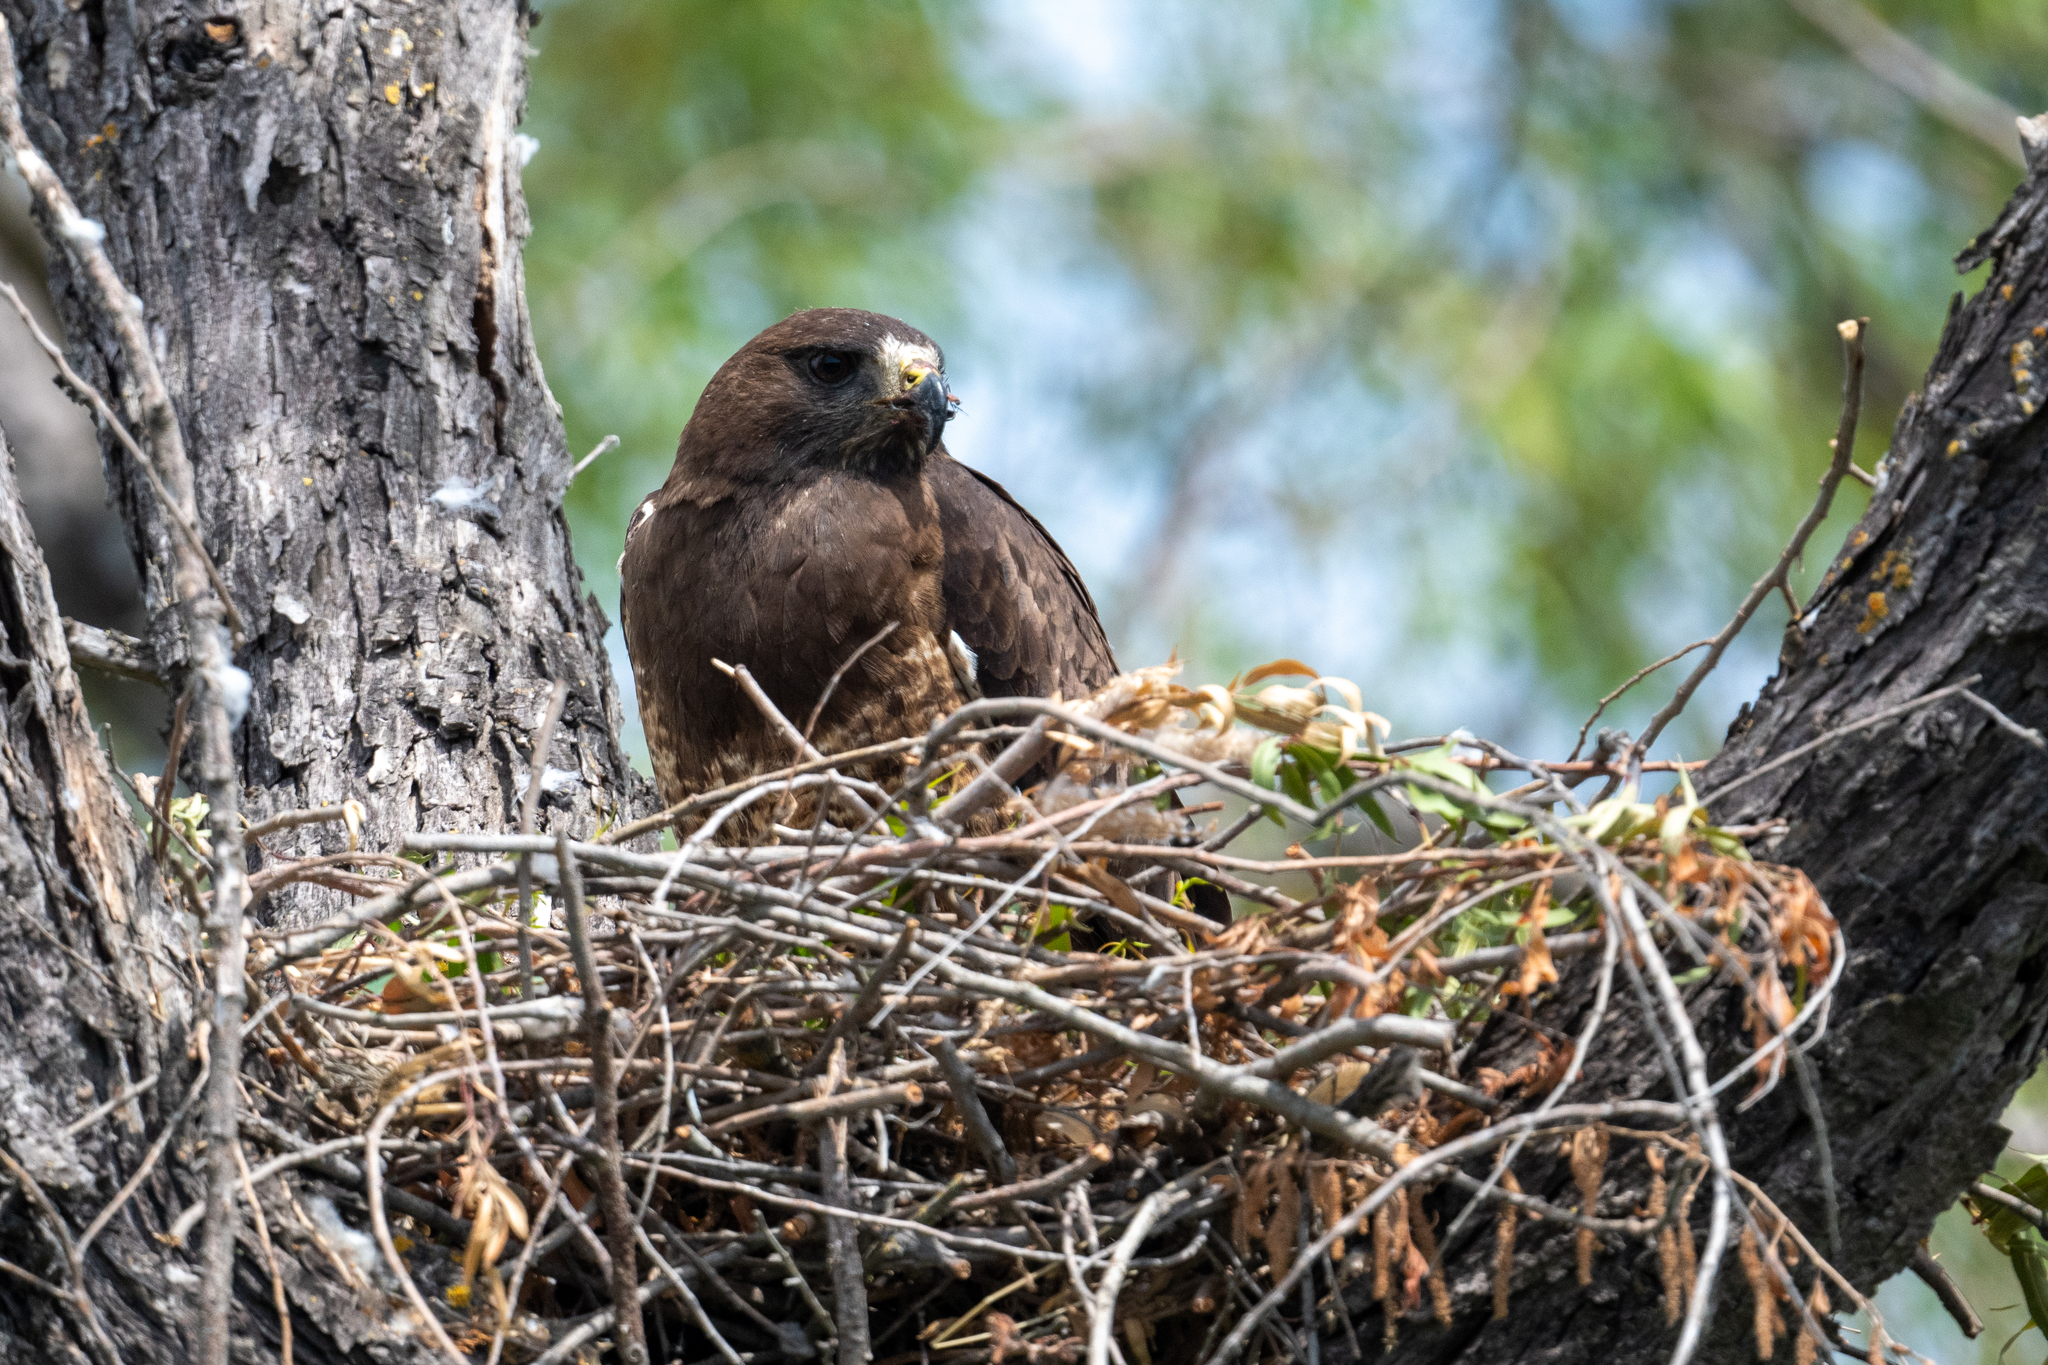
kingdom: Animalia
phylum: Chordata
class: Aves
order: Accipitriformes
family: Accipitridae
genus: Buteo
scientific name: Buteo swainsoni
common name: Swainson's hawk
